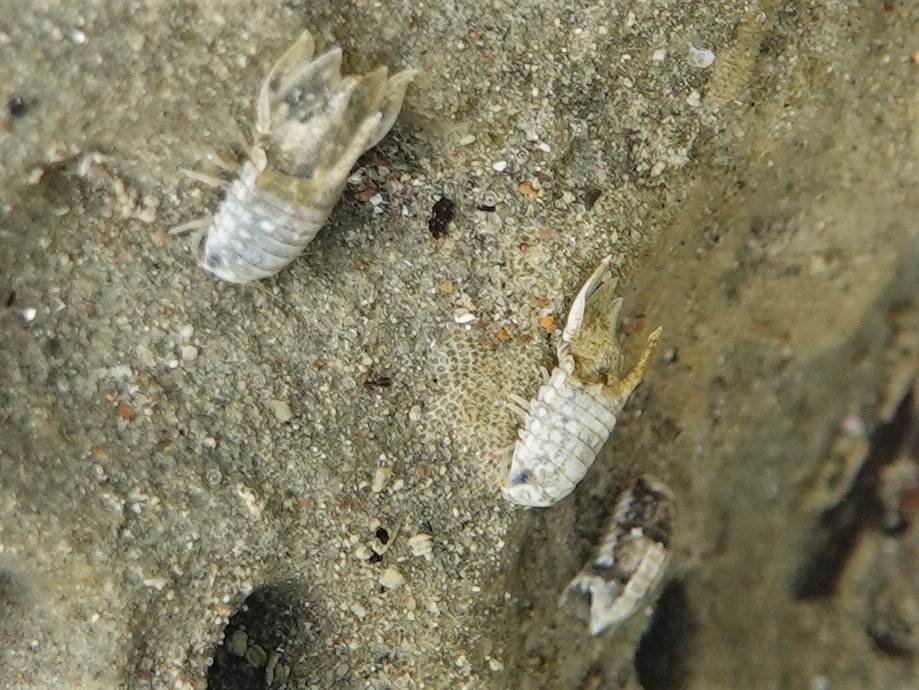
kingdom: Animalia
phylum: Arthropoda
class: Malacostraca
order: Isopoda
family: Sphaeromatidae
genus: Isocladus
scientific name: Isocladus armatus
